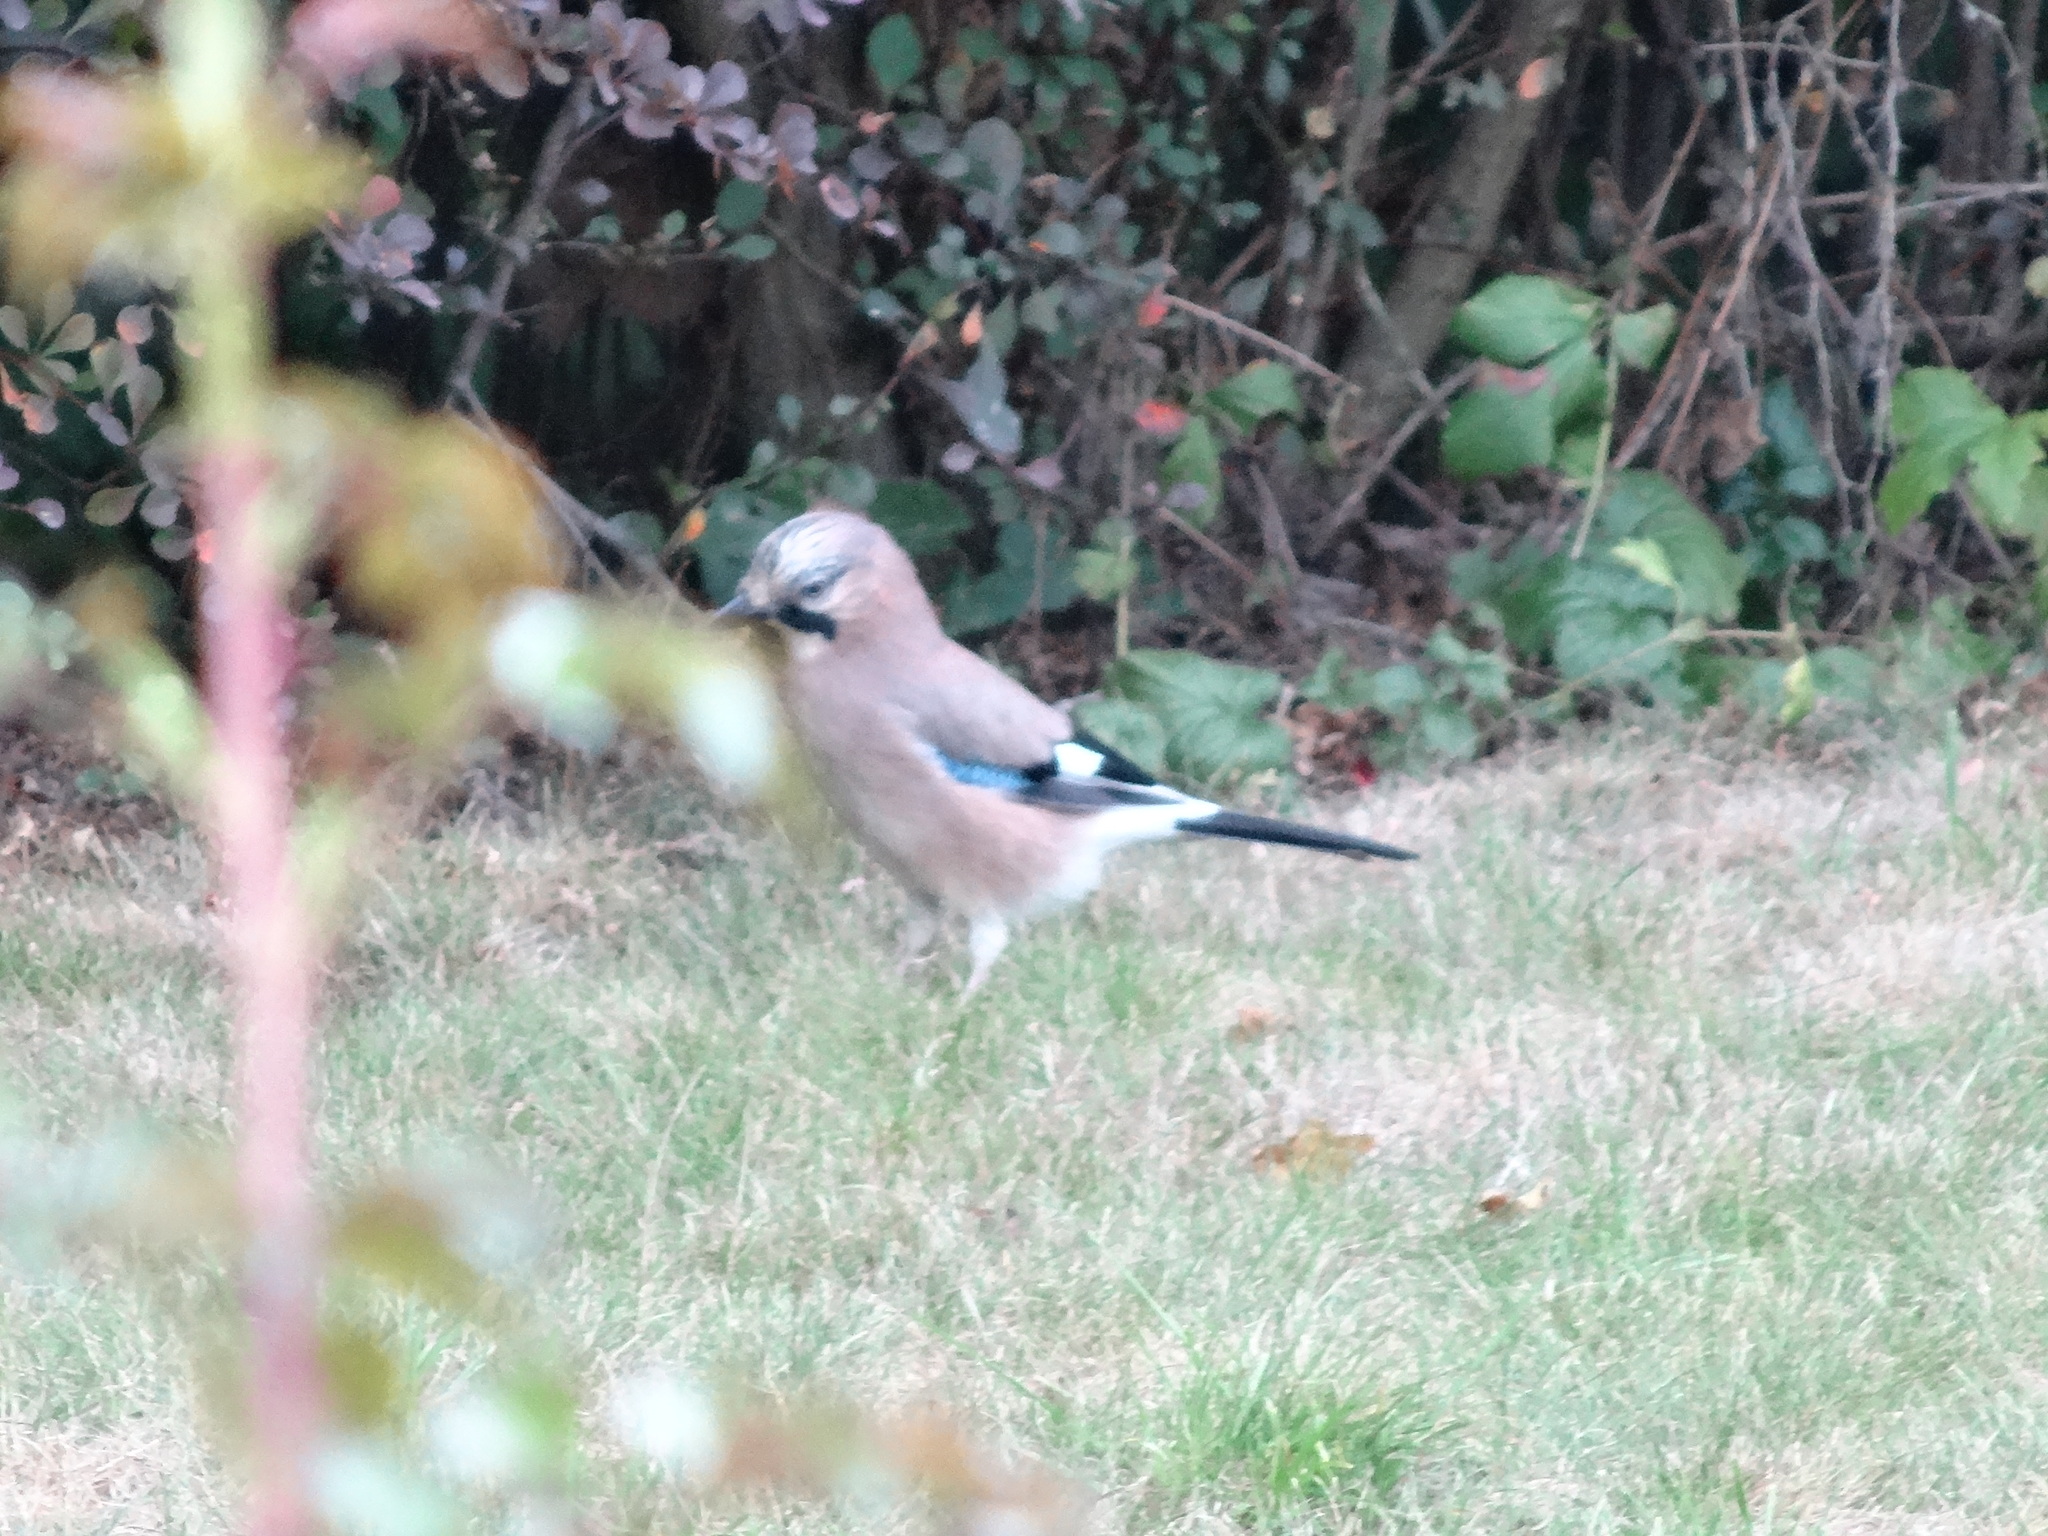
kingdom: Animalia
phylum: Chordata
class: Aves
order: Passeriformes
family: Corvidae
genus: Garrulus
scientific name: Garrulus glandarius
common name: Eurasian jay
